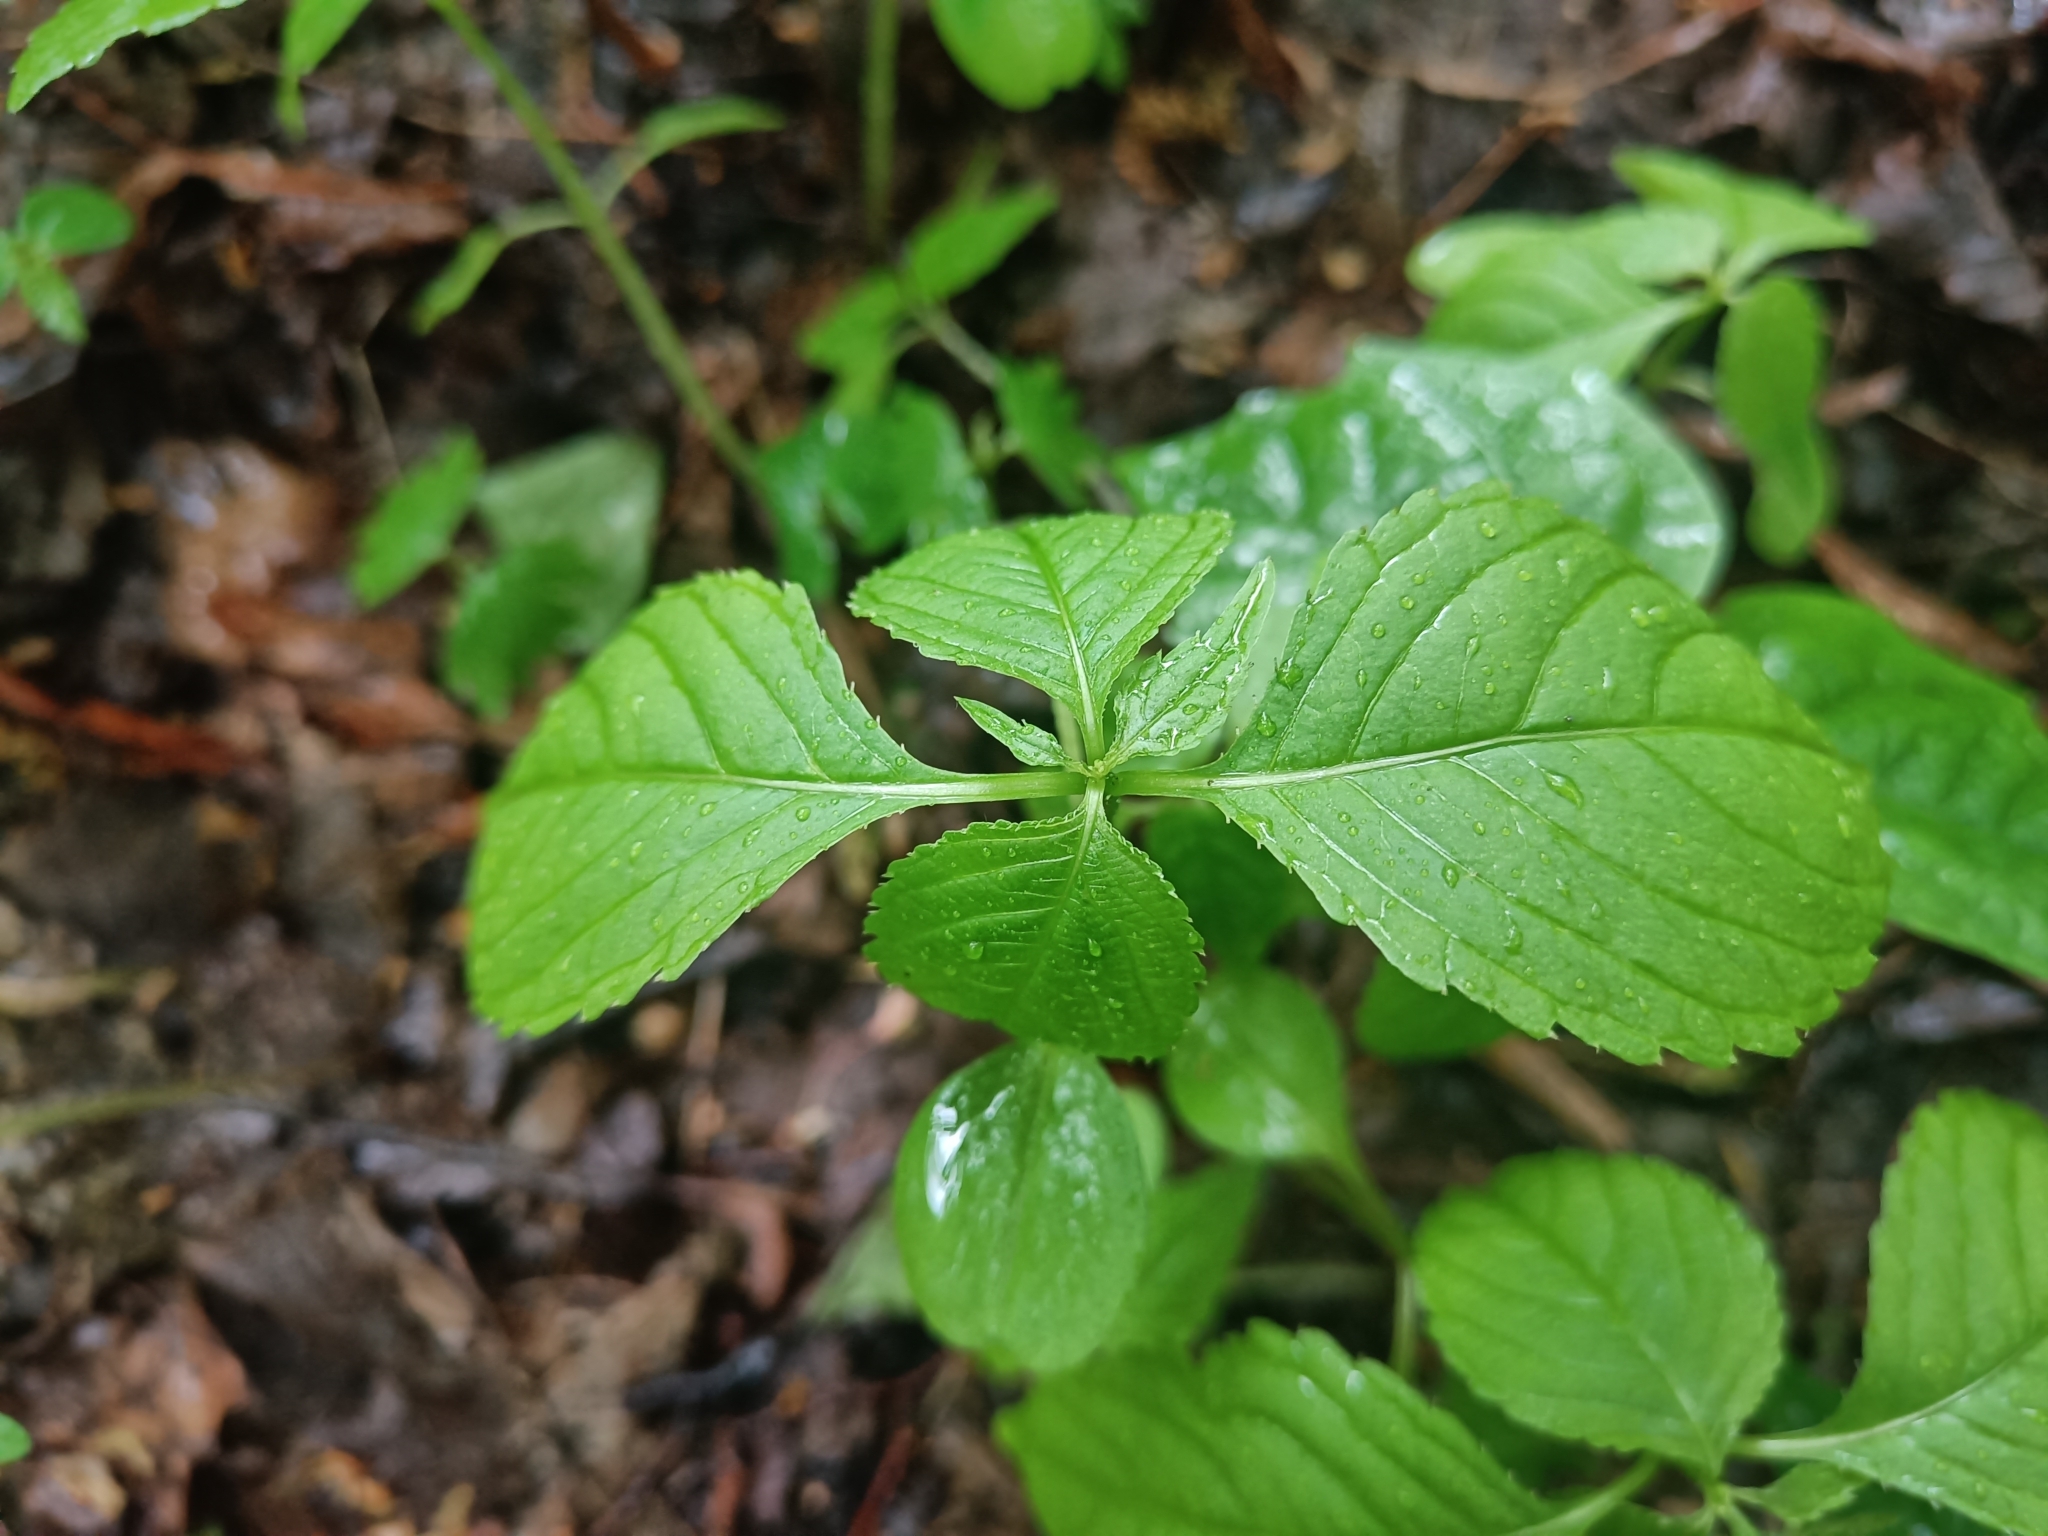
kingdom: Plantae
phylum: Tracheophyta
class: Magnoliopsida
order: Ericales
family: Balsaminaceae
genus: Impatiens
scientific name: Impatiens parviflora
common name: Small balsam
